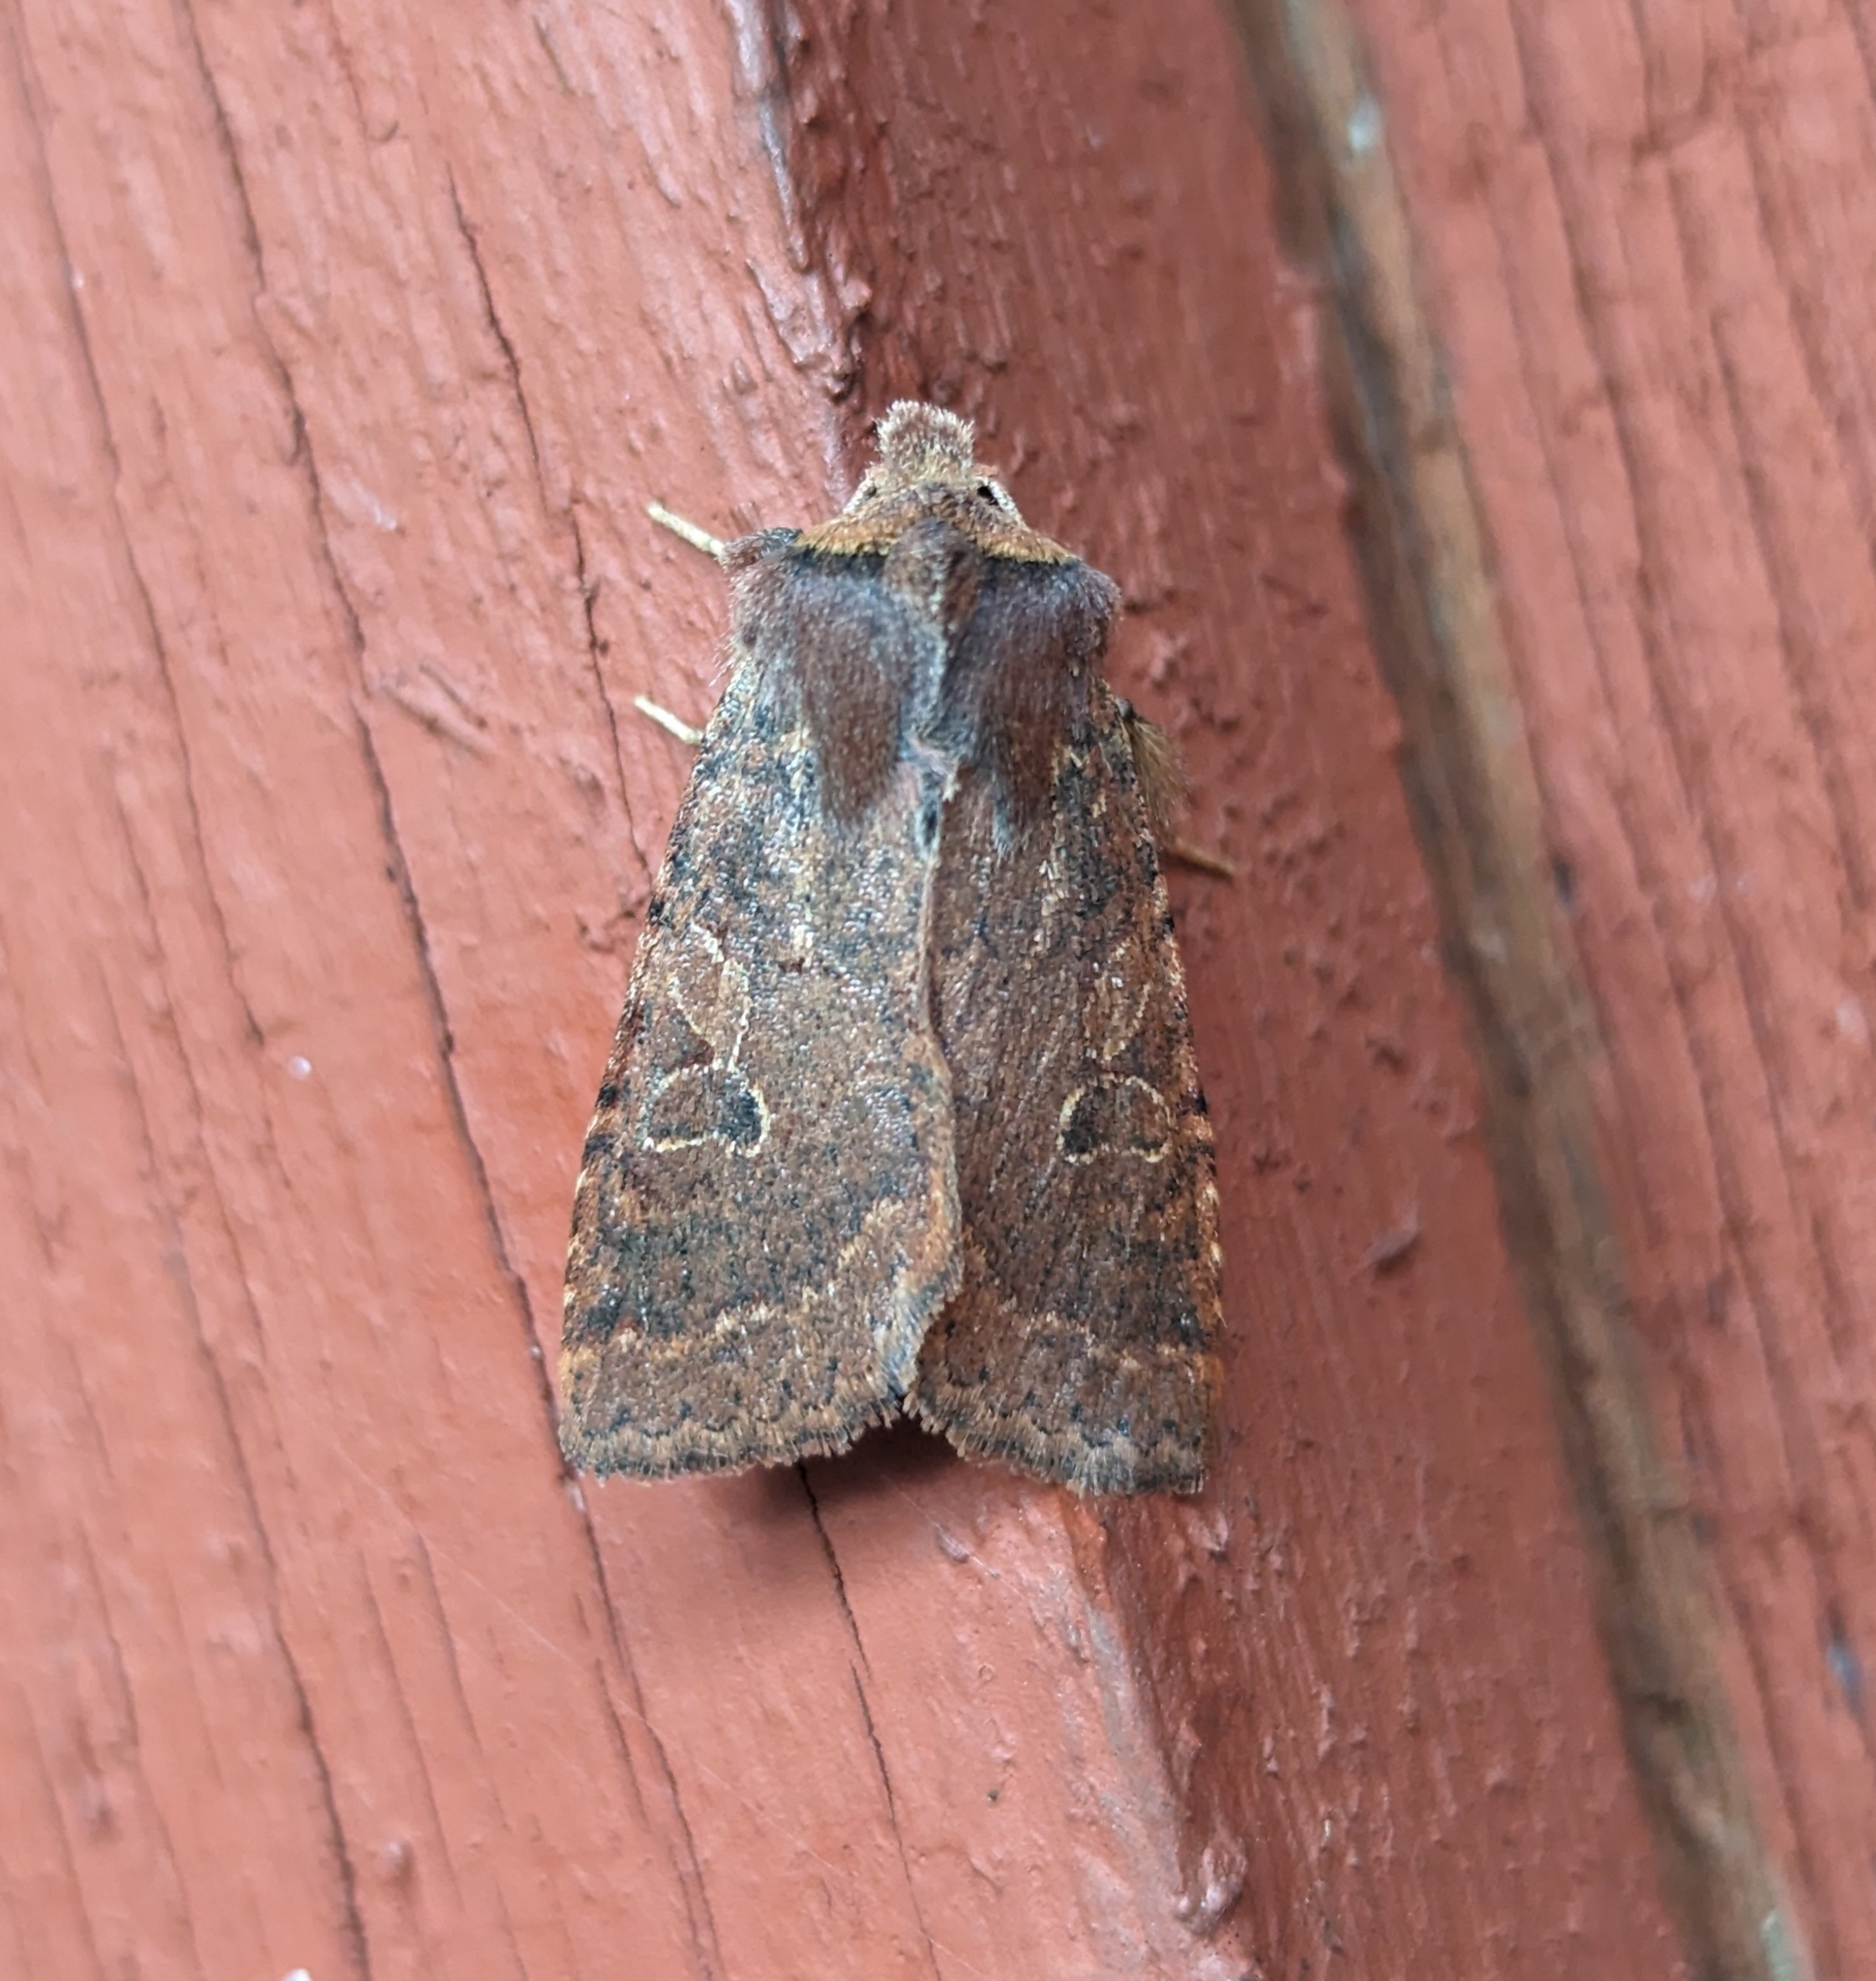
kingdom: Animalia
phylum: Arthropoda
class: Insecta
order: Lepidoptera
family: Noctuidae
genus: Orthosia
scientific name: Orthosia praeses
